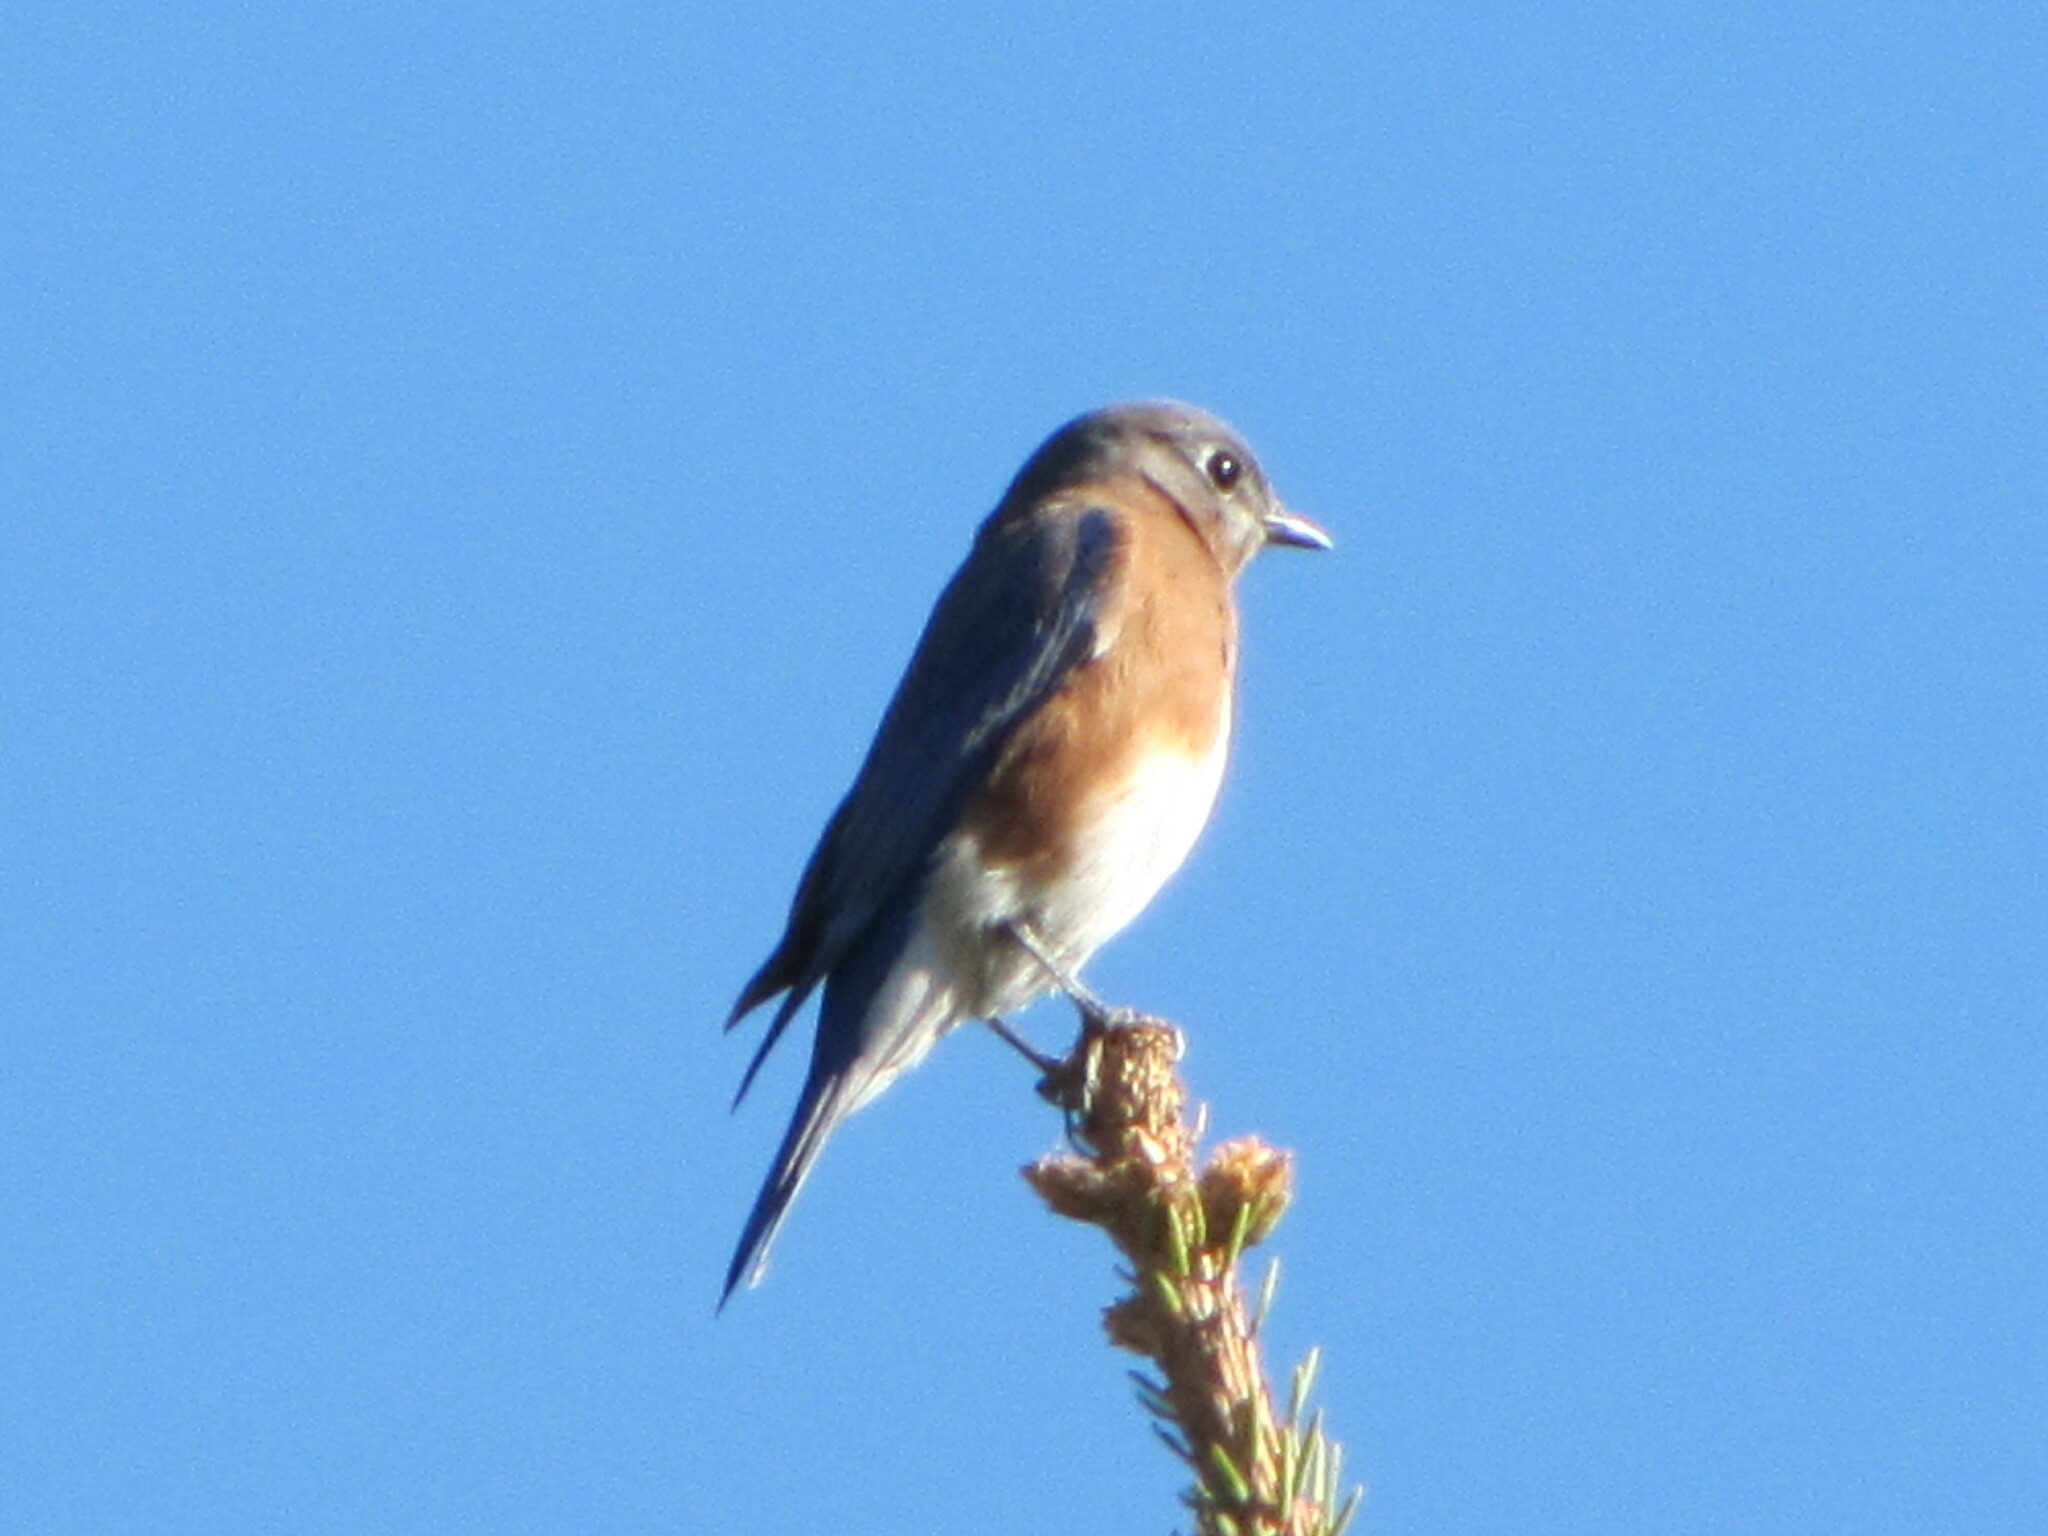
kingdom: Animalia
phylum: Chordata
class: Aves
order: Passeriformes
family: Turdidae
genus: Sialia
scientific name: Sialia sialis
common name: Eastern bluebird
